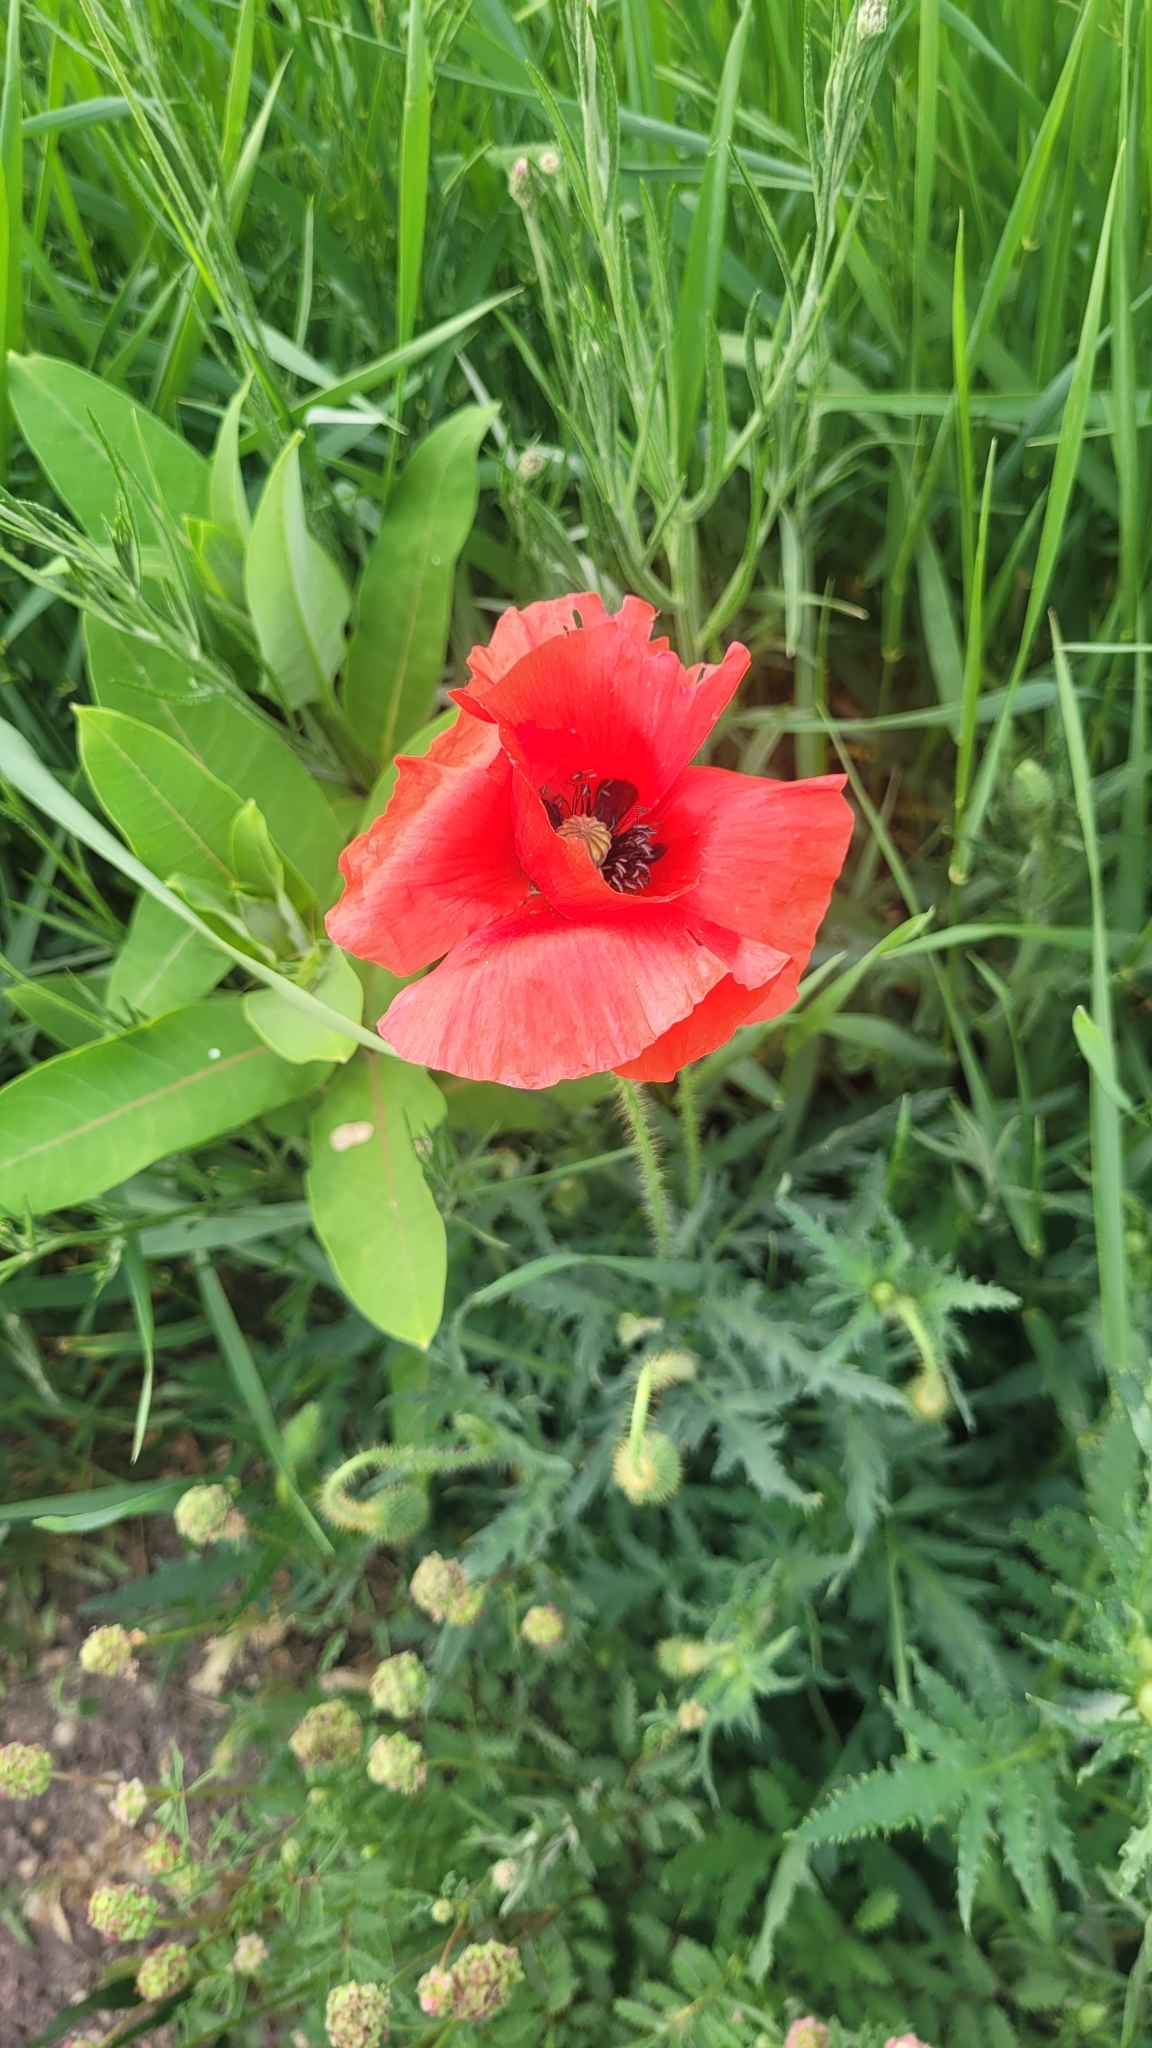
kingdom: Plantae
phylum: Tracheophyta
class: Magnoliopsida
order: Ranunculales
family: Papaveraceae
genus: Papaver
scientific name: Papaver rhoeas
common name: Corn poppy
